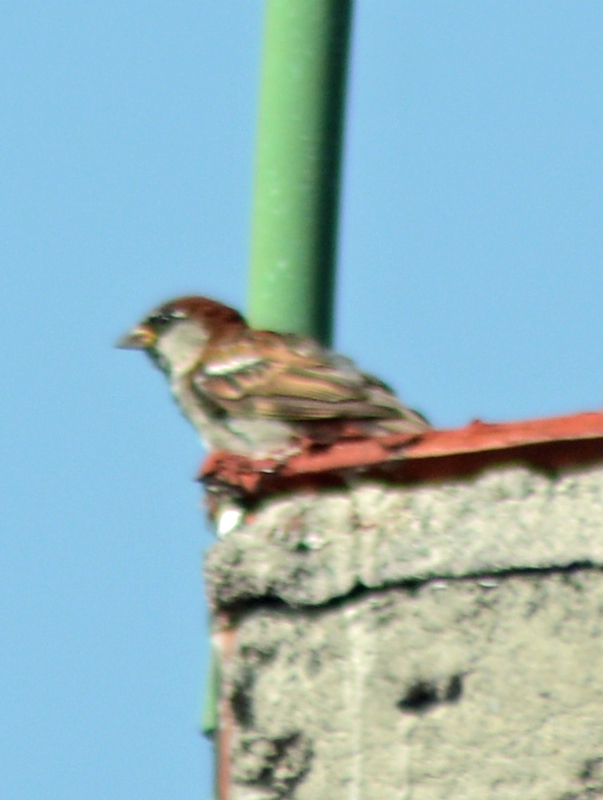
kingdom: Animalia
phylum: Chordata
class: Aves
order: Passeriformes
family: Passeridae
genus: Passer
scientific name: Passer domesticus
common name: House sparrow
